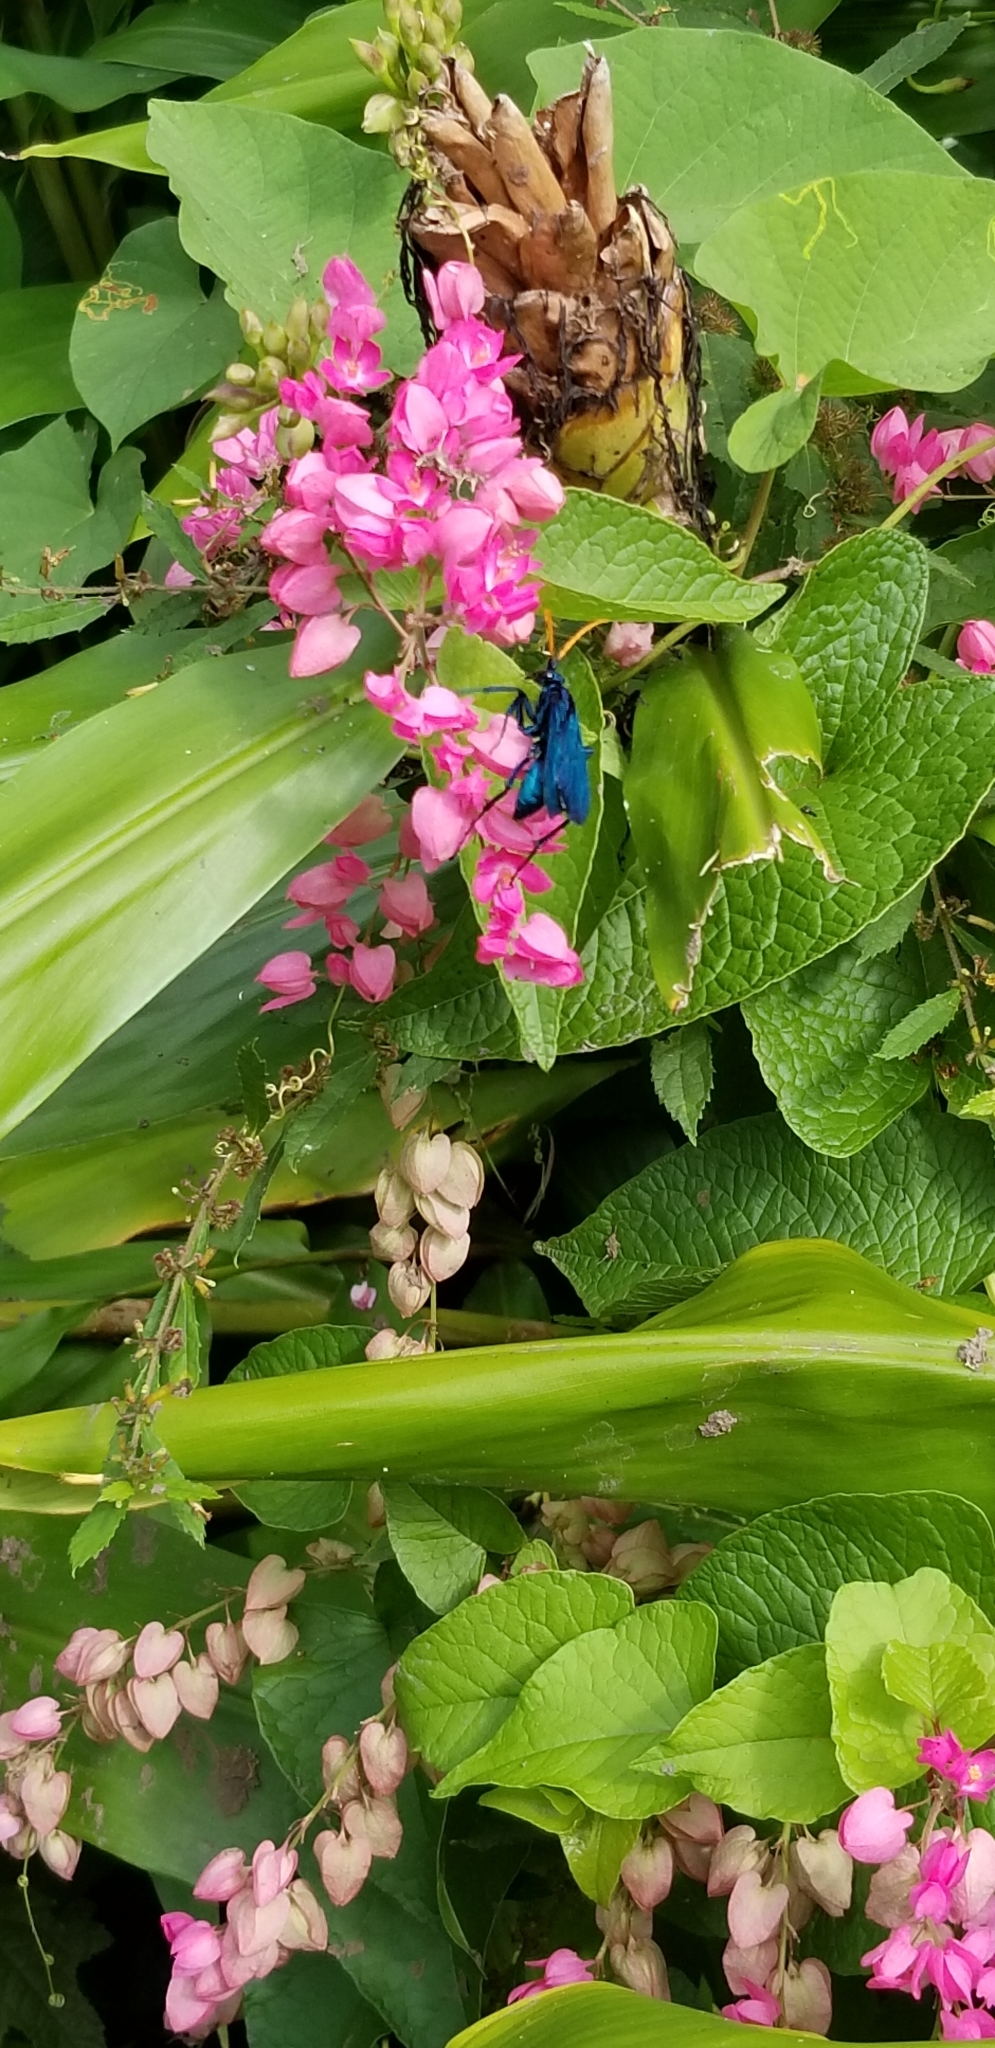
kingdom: Animalia
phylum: Arthropoda
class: Insecta
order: Hymenoptera
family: Pompilidae
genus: Pepsis
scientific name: Pepsis ruficornis
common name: Orange-horned tarantula hawk
